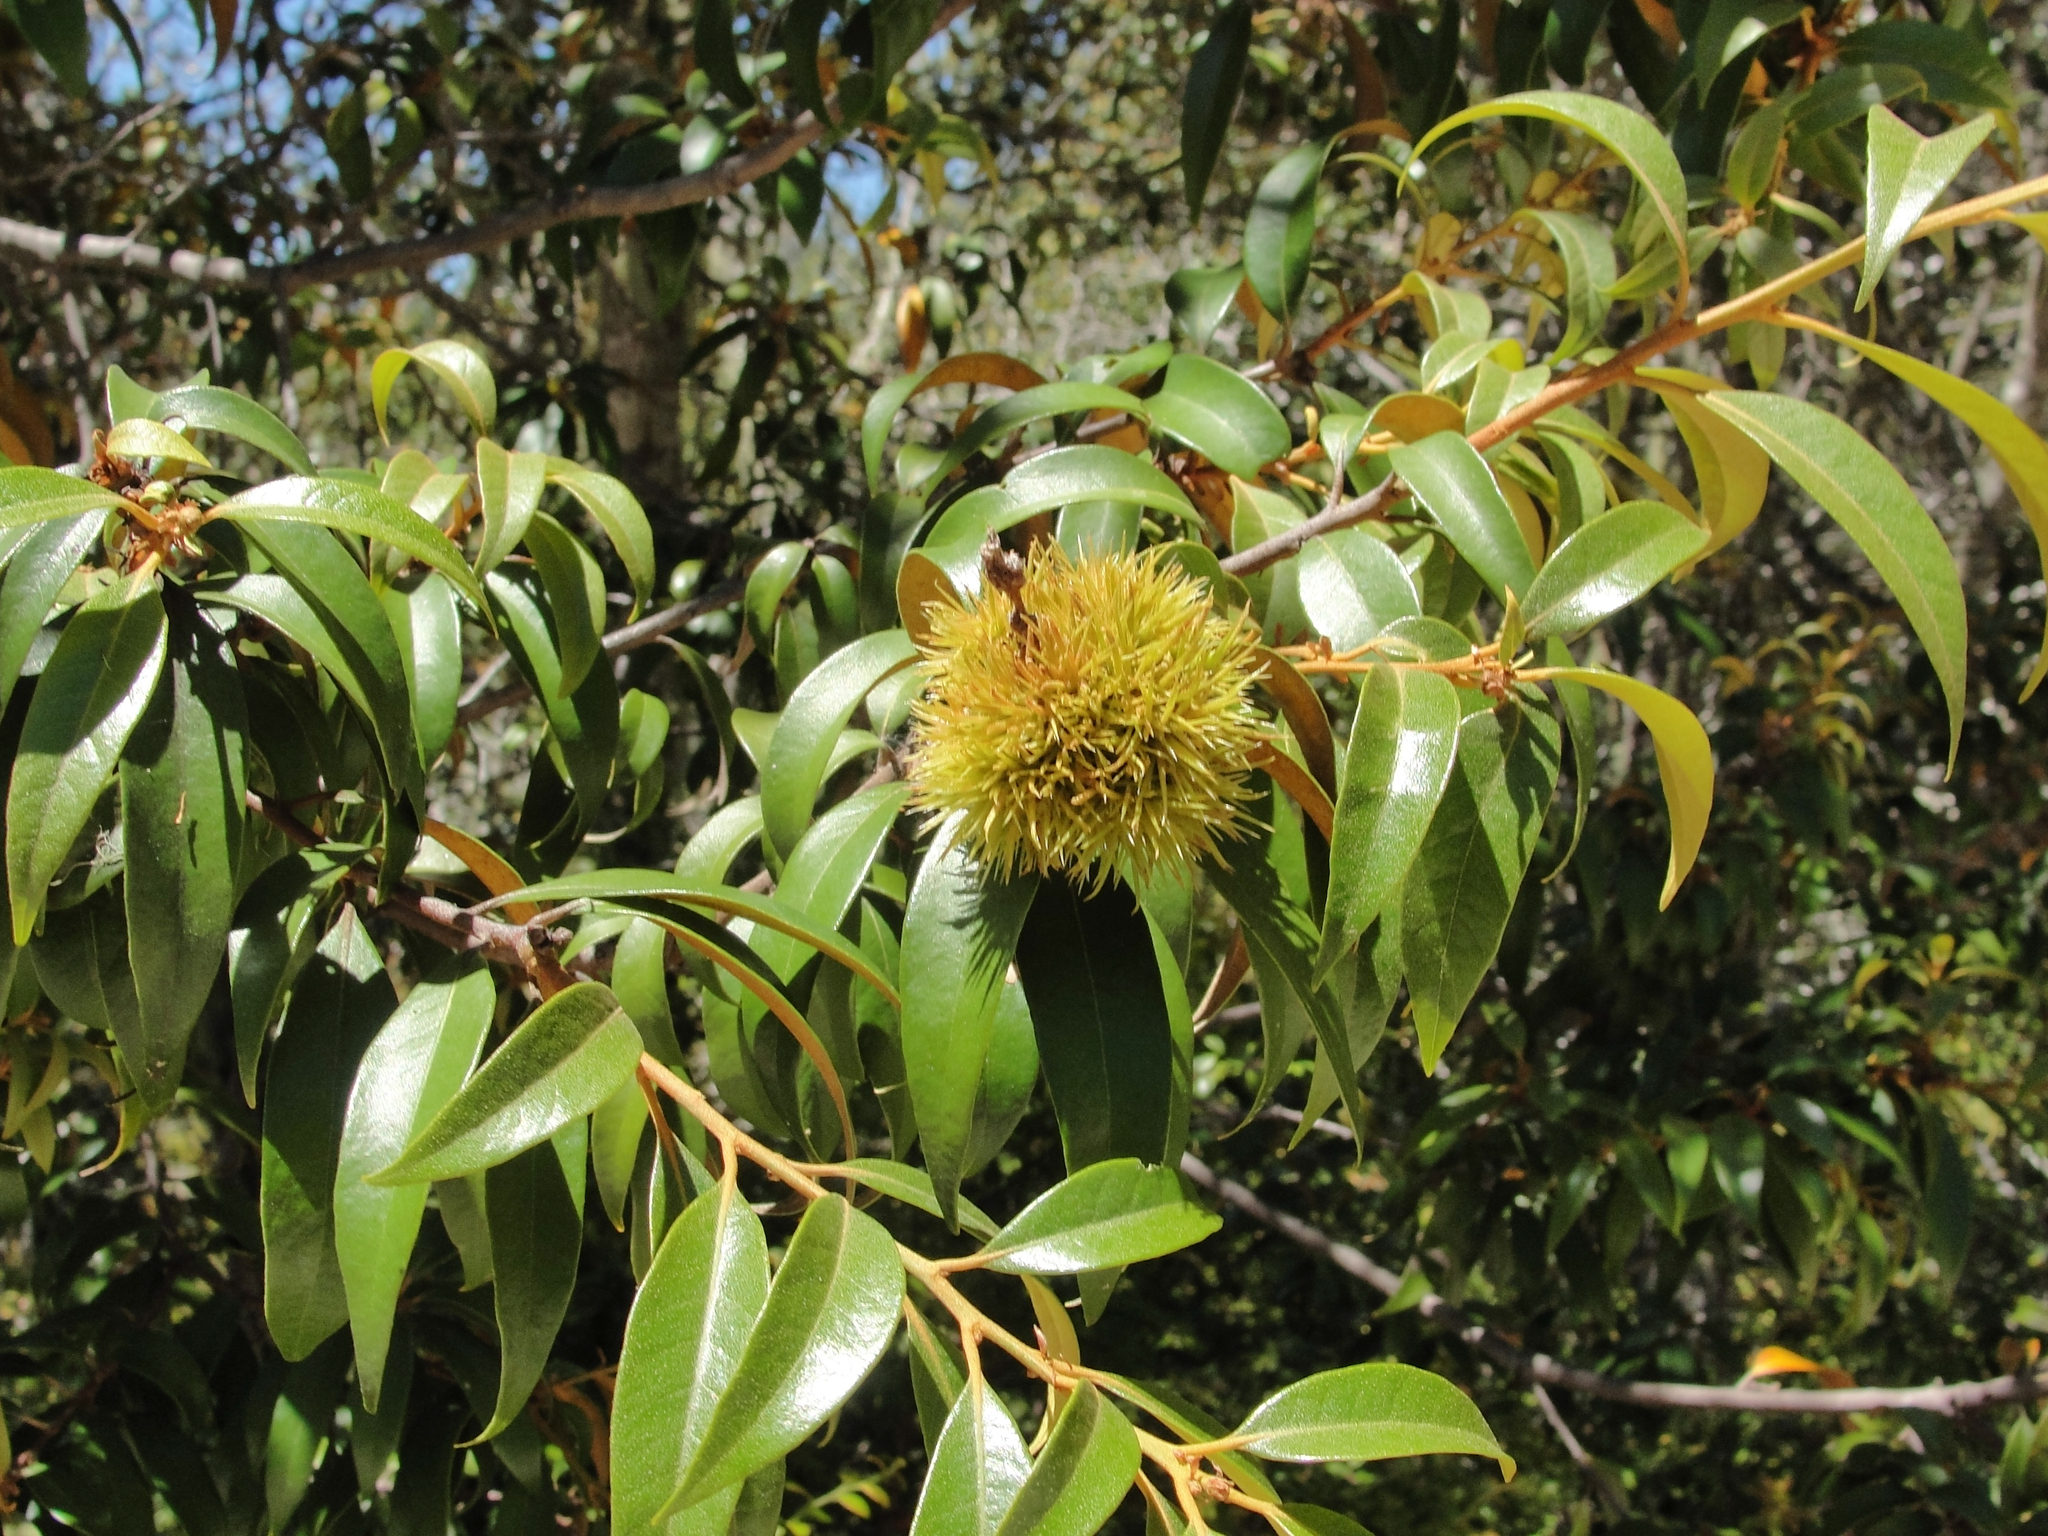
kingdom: Plantae
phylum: Tracheophyta
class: Magnoliopsida
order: Fagales
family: Fagaceae
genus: Chrysolepis
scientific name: Chrysolepis chrysophylla
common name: Giant chinquapin
